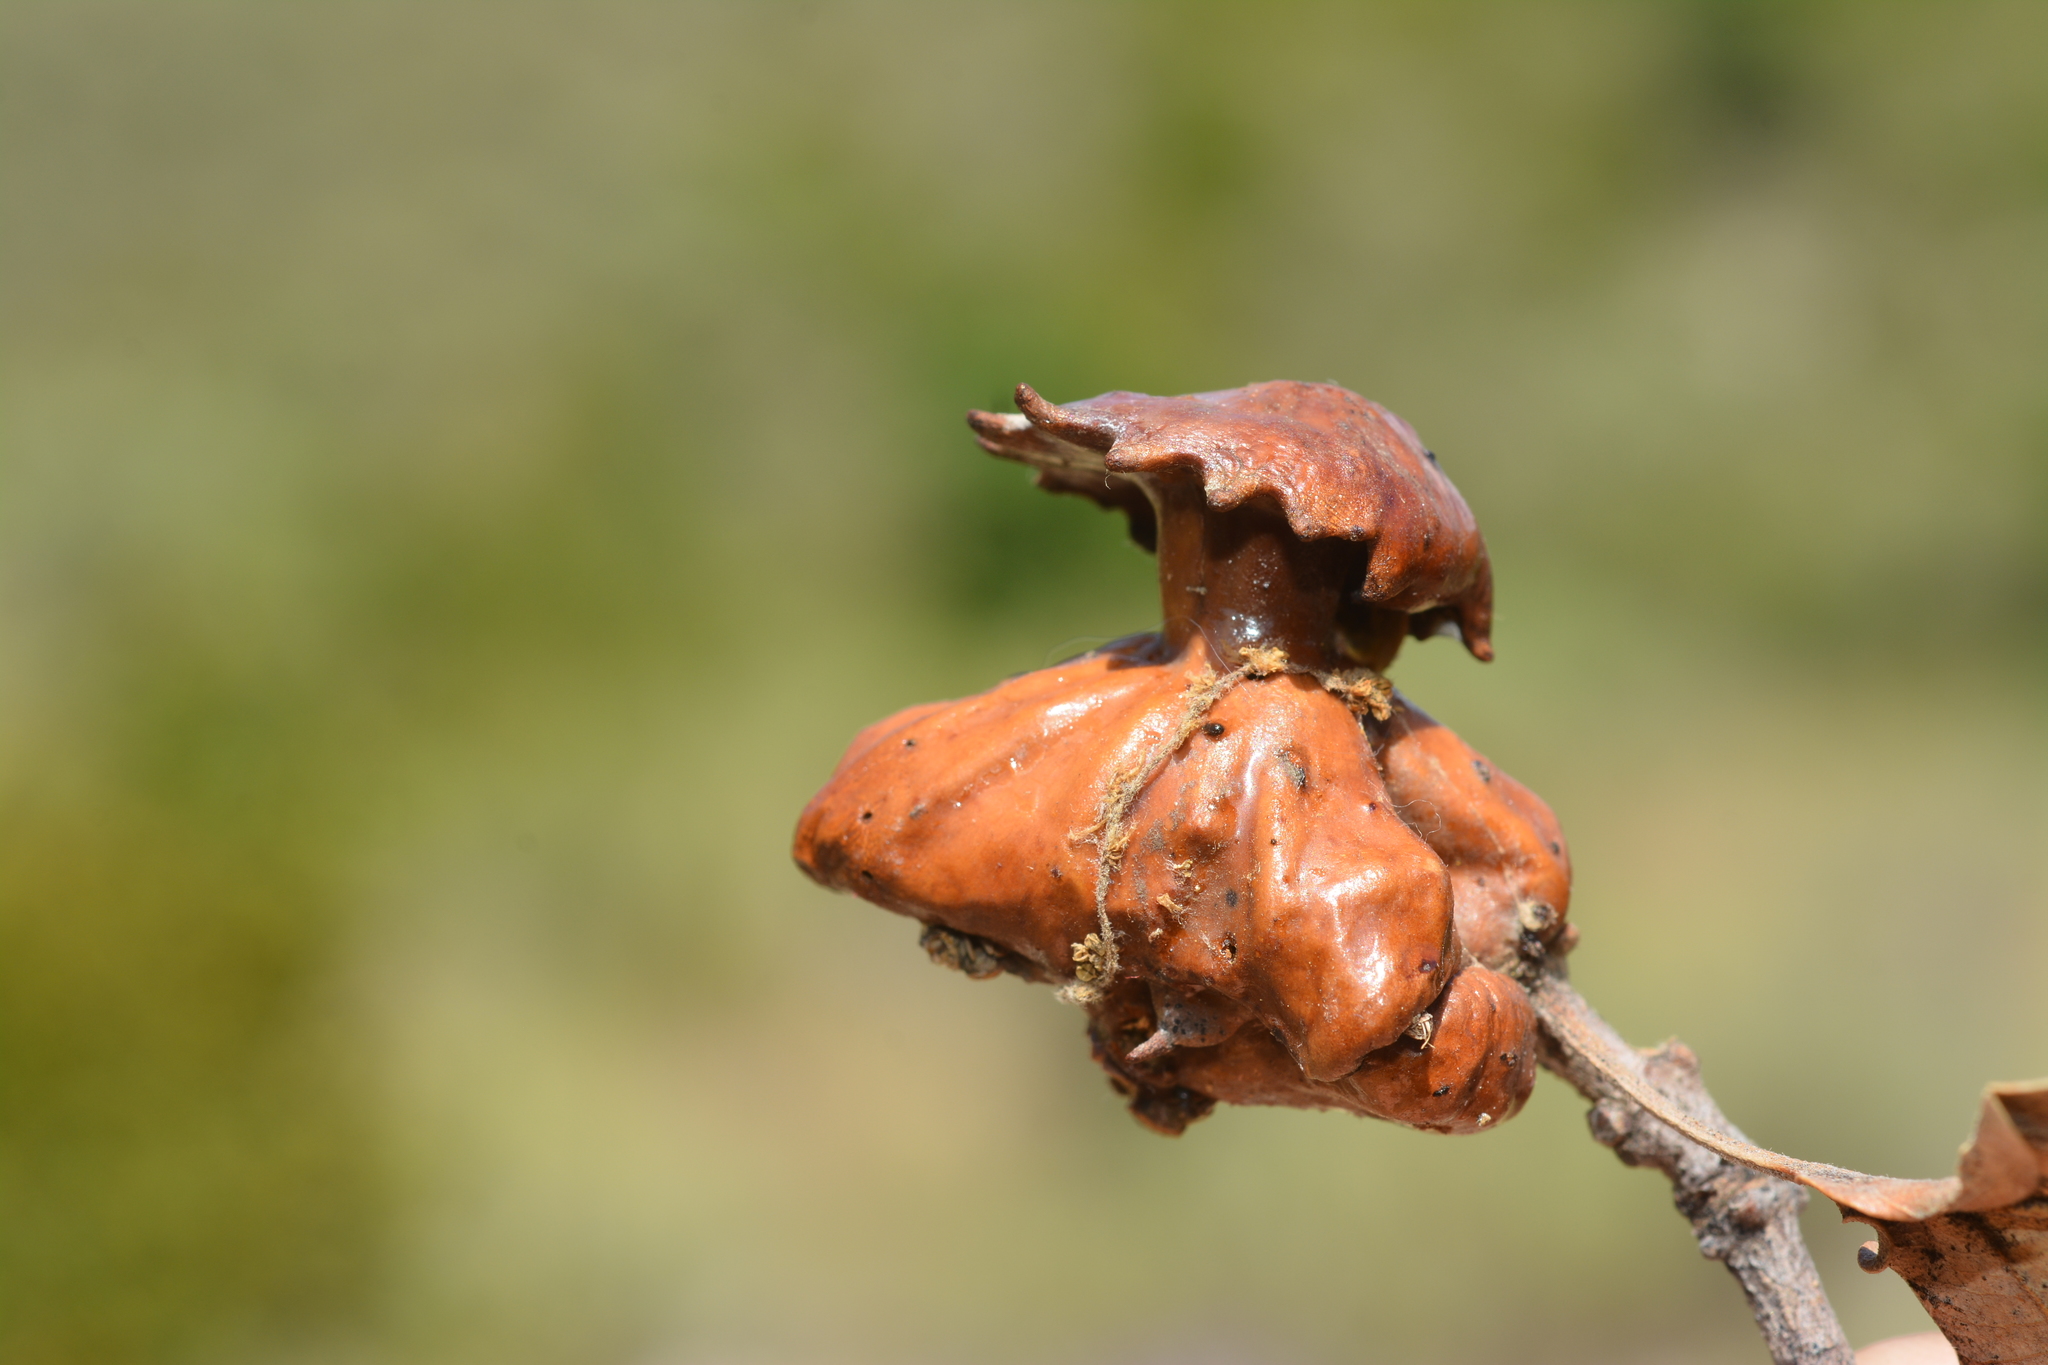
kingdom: Animalia
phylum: Arthropoda
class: Insecta
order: Hymenoptera
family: Cynipidae
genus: Andricus
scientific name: Andricus dentimitratus
